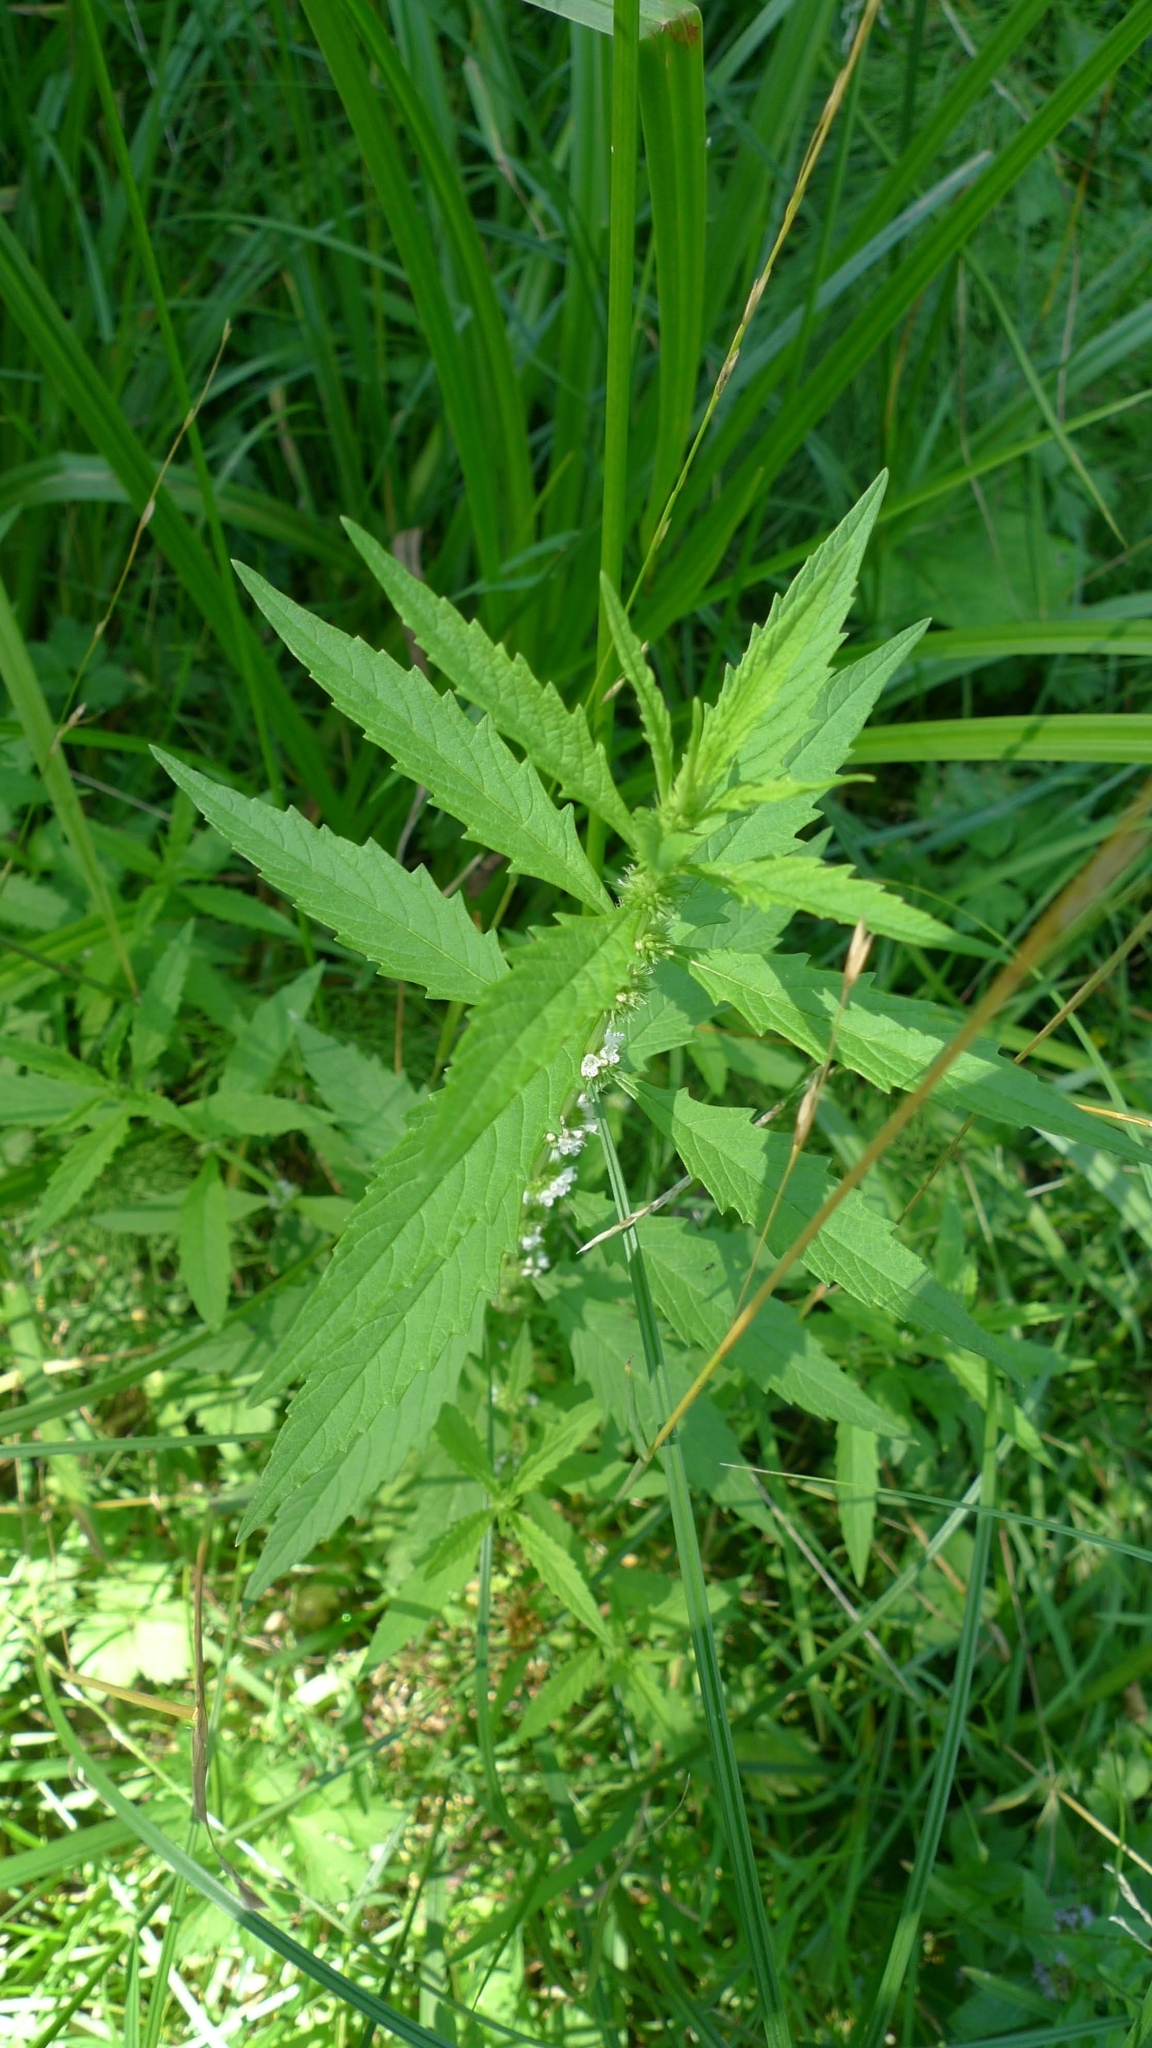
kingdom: Plantae
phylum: Tracheophyta
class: Magnoliopsida
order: Lamiales
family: Lamiaceae
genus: Lycopus
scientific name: Lycopus europaeus
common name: European bugleweed
